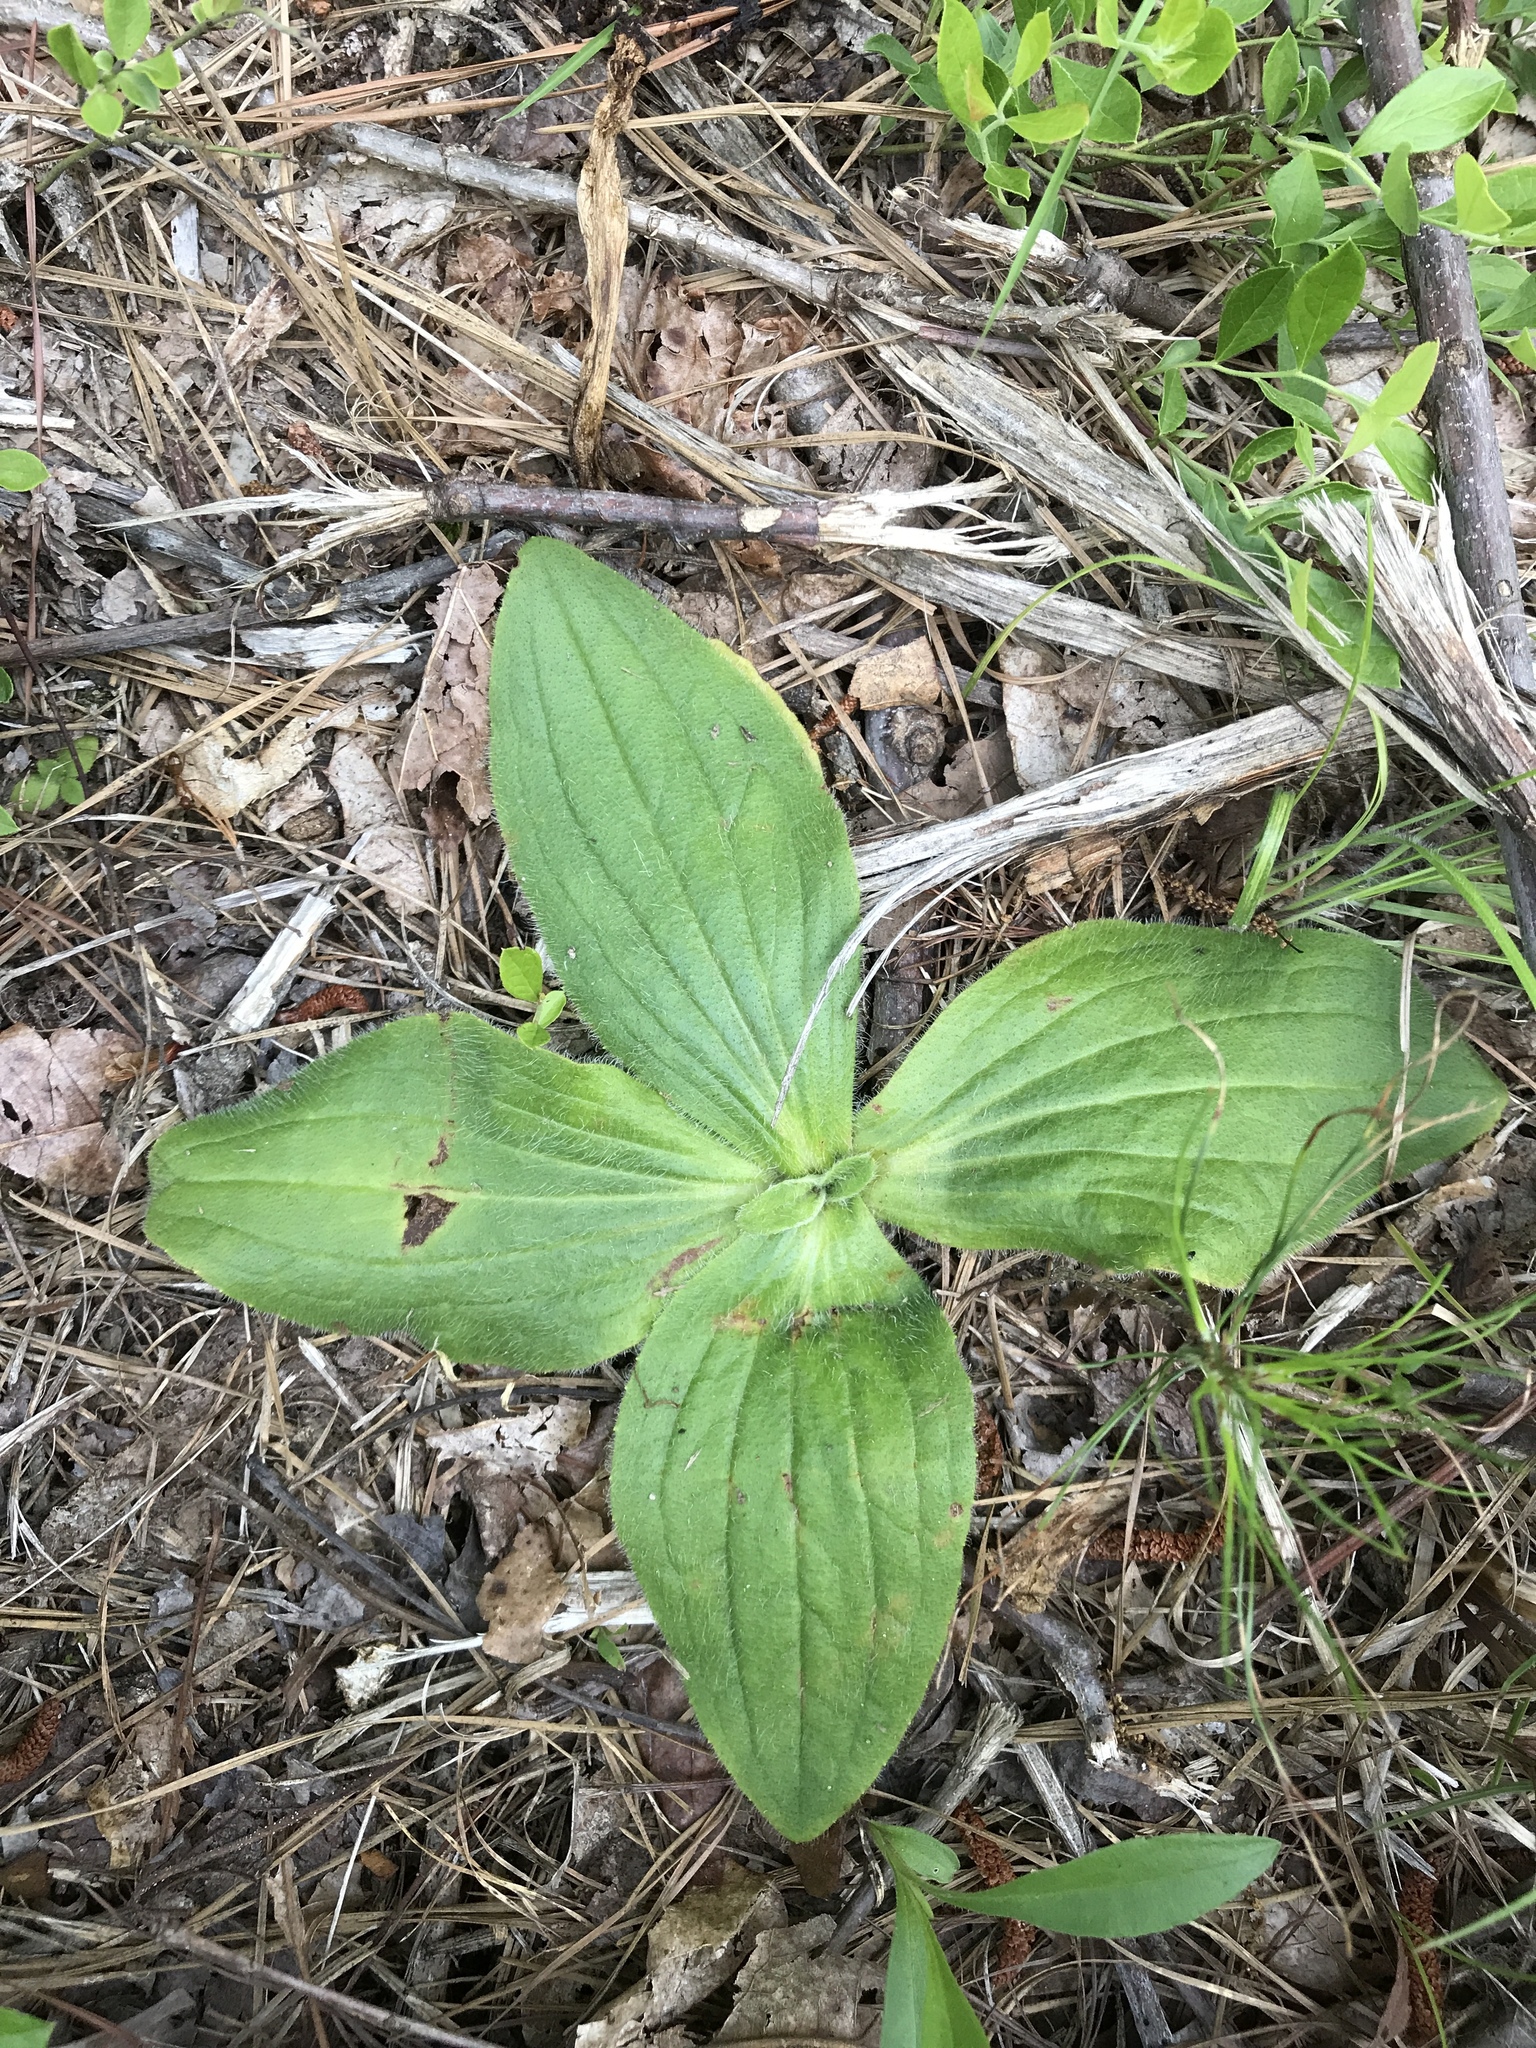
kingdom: Plantae
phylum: Tracheophyta
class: Magnoliopsida
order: Asterales
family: Asteraceae
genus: Arnica
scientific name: Arnica acaulis
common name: Common leopardbane
